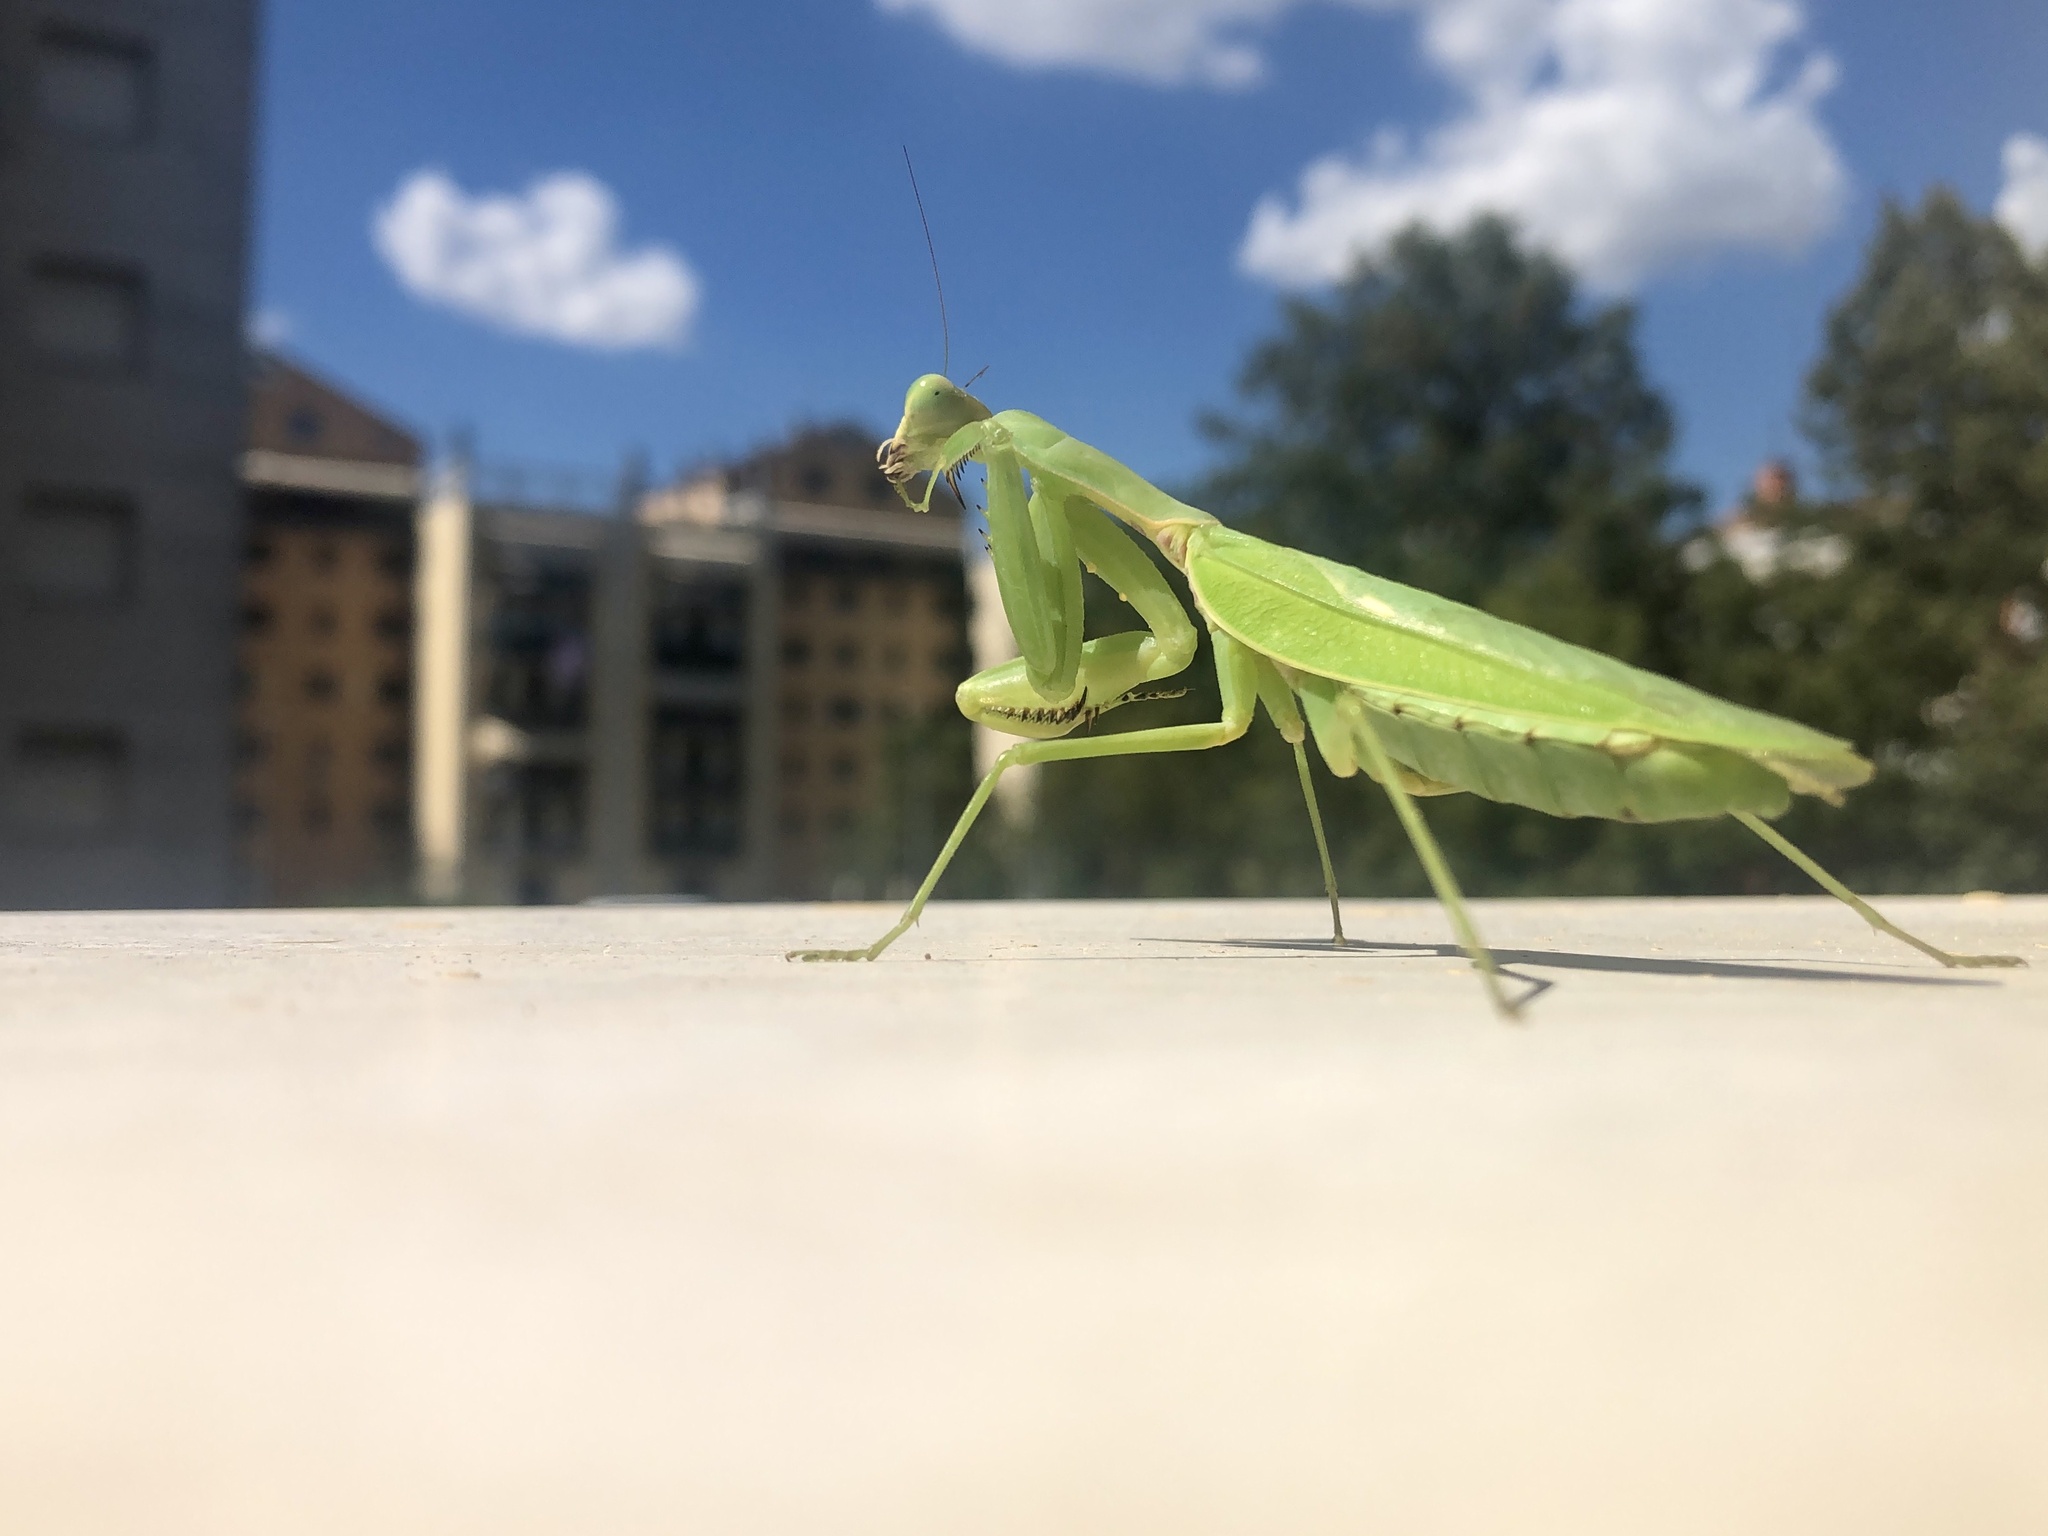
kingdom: Animalia
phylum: Arthropoda
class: Insecta
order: Mantodea
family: Mantidae
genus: Hierodula
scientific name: Hierodula patellifera
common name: Asian mantis
